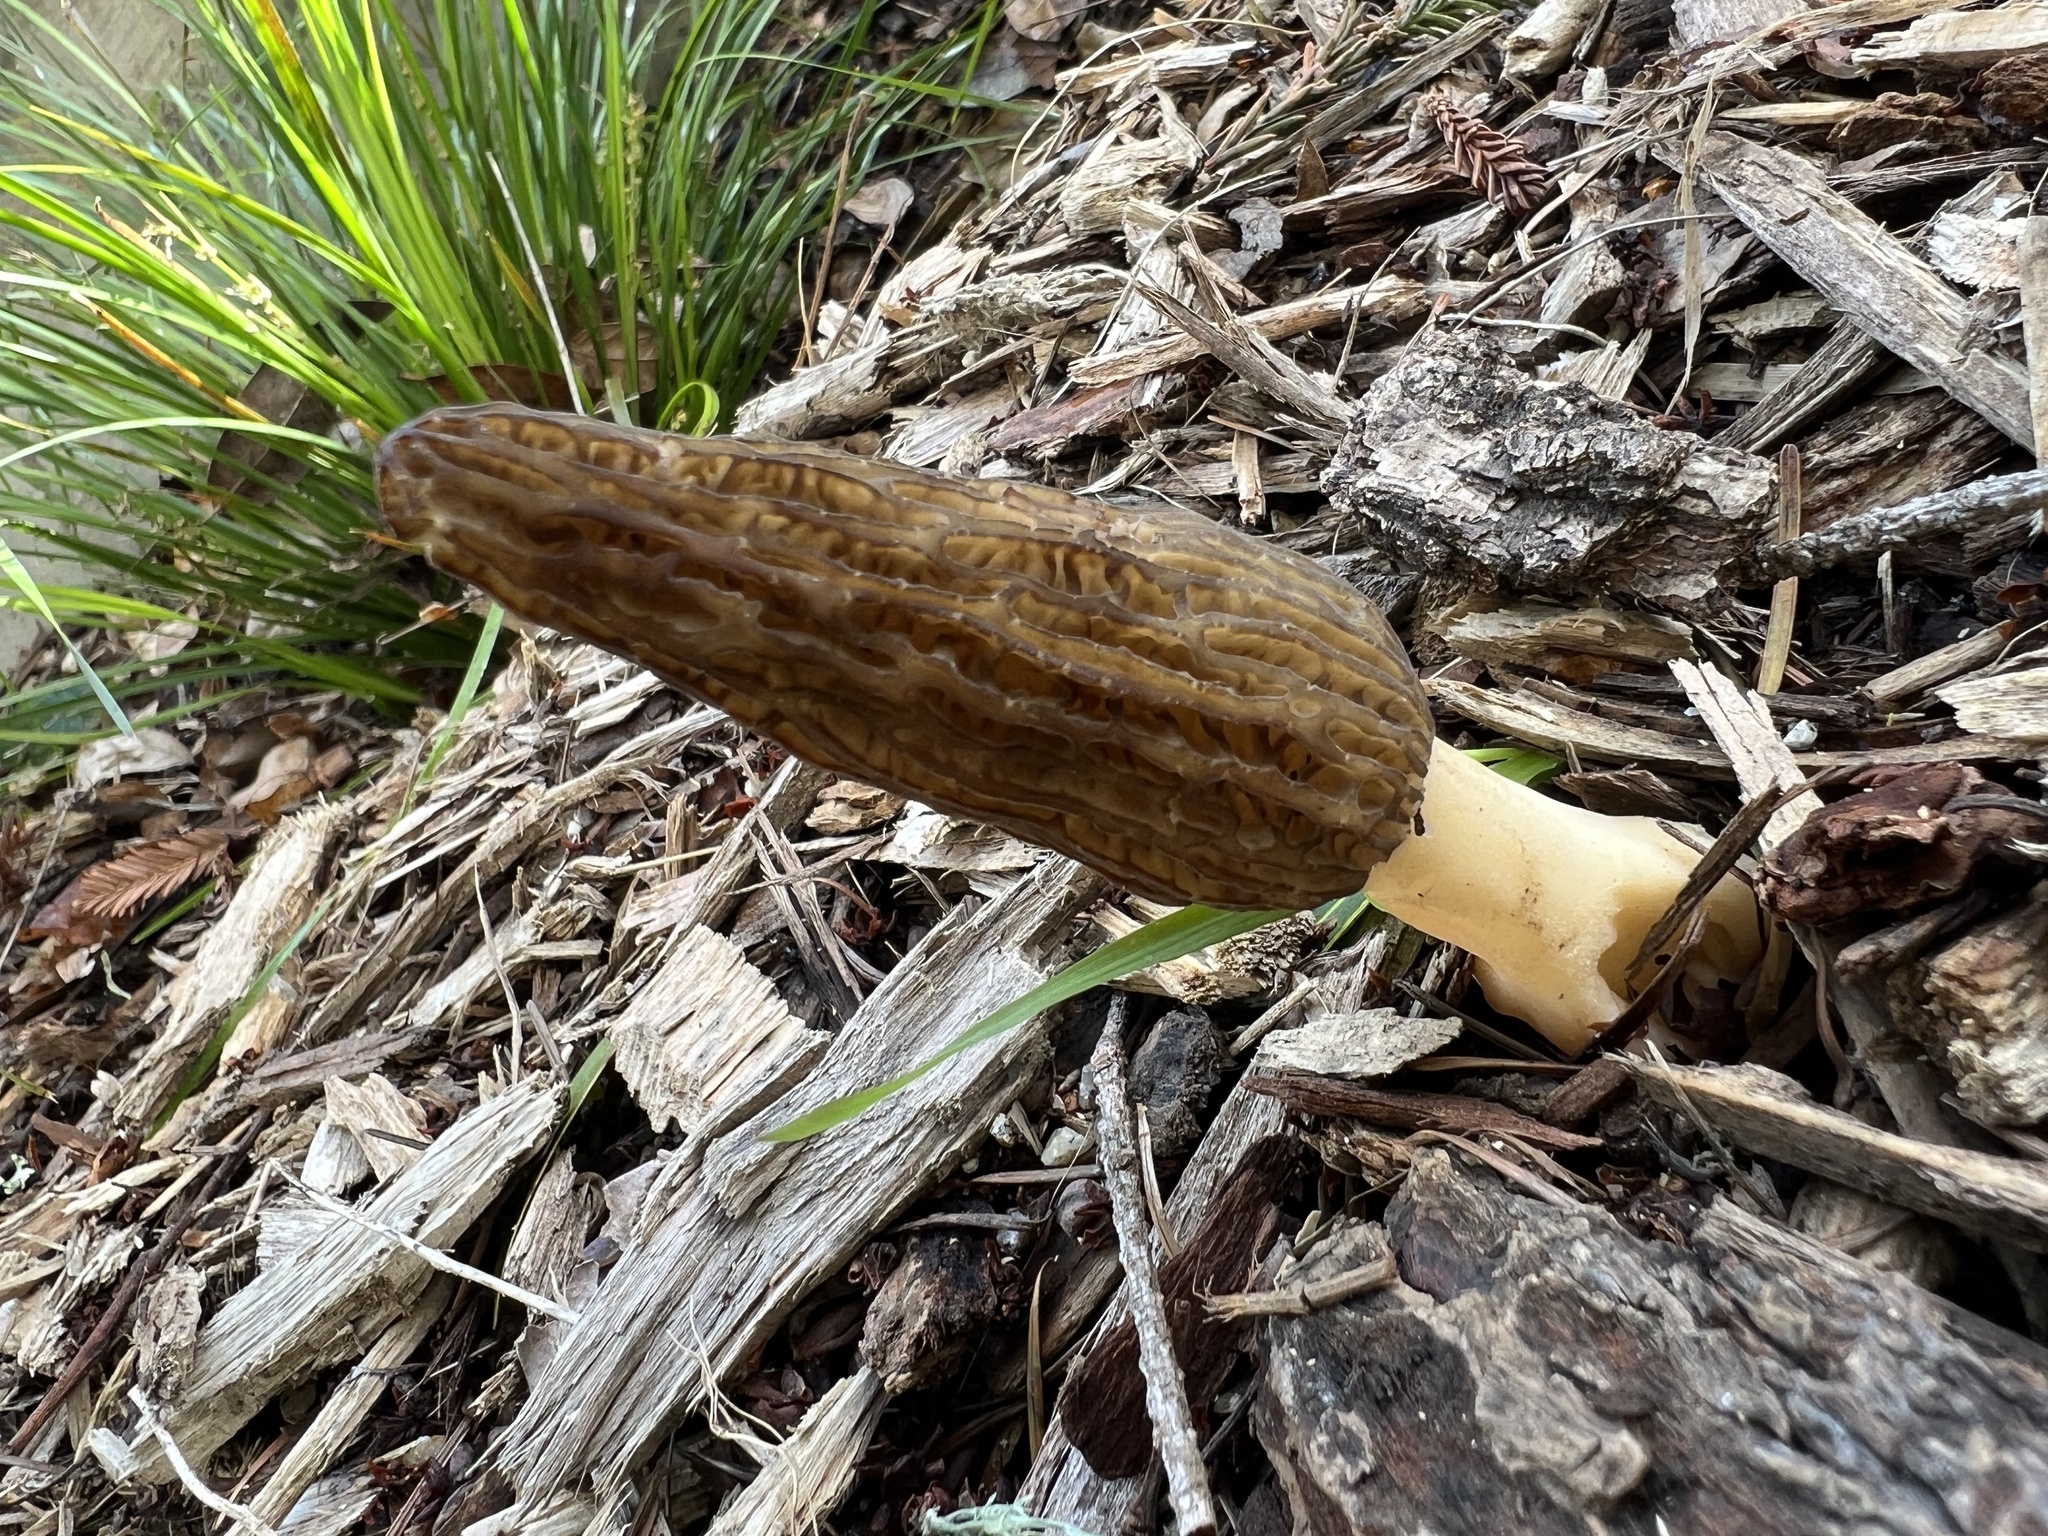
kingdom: Fungi
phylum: Ascomycota
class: Pezizomycetes
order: Pezizales
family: Morchellaceae
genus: Morchella
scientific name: Morchella importuna
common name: Landscaping black morel
